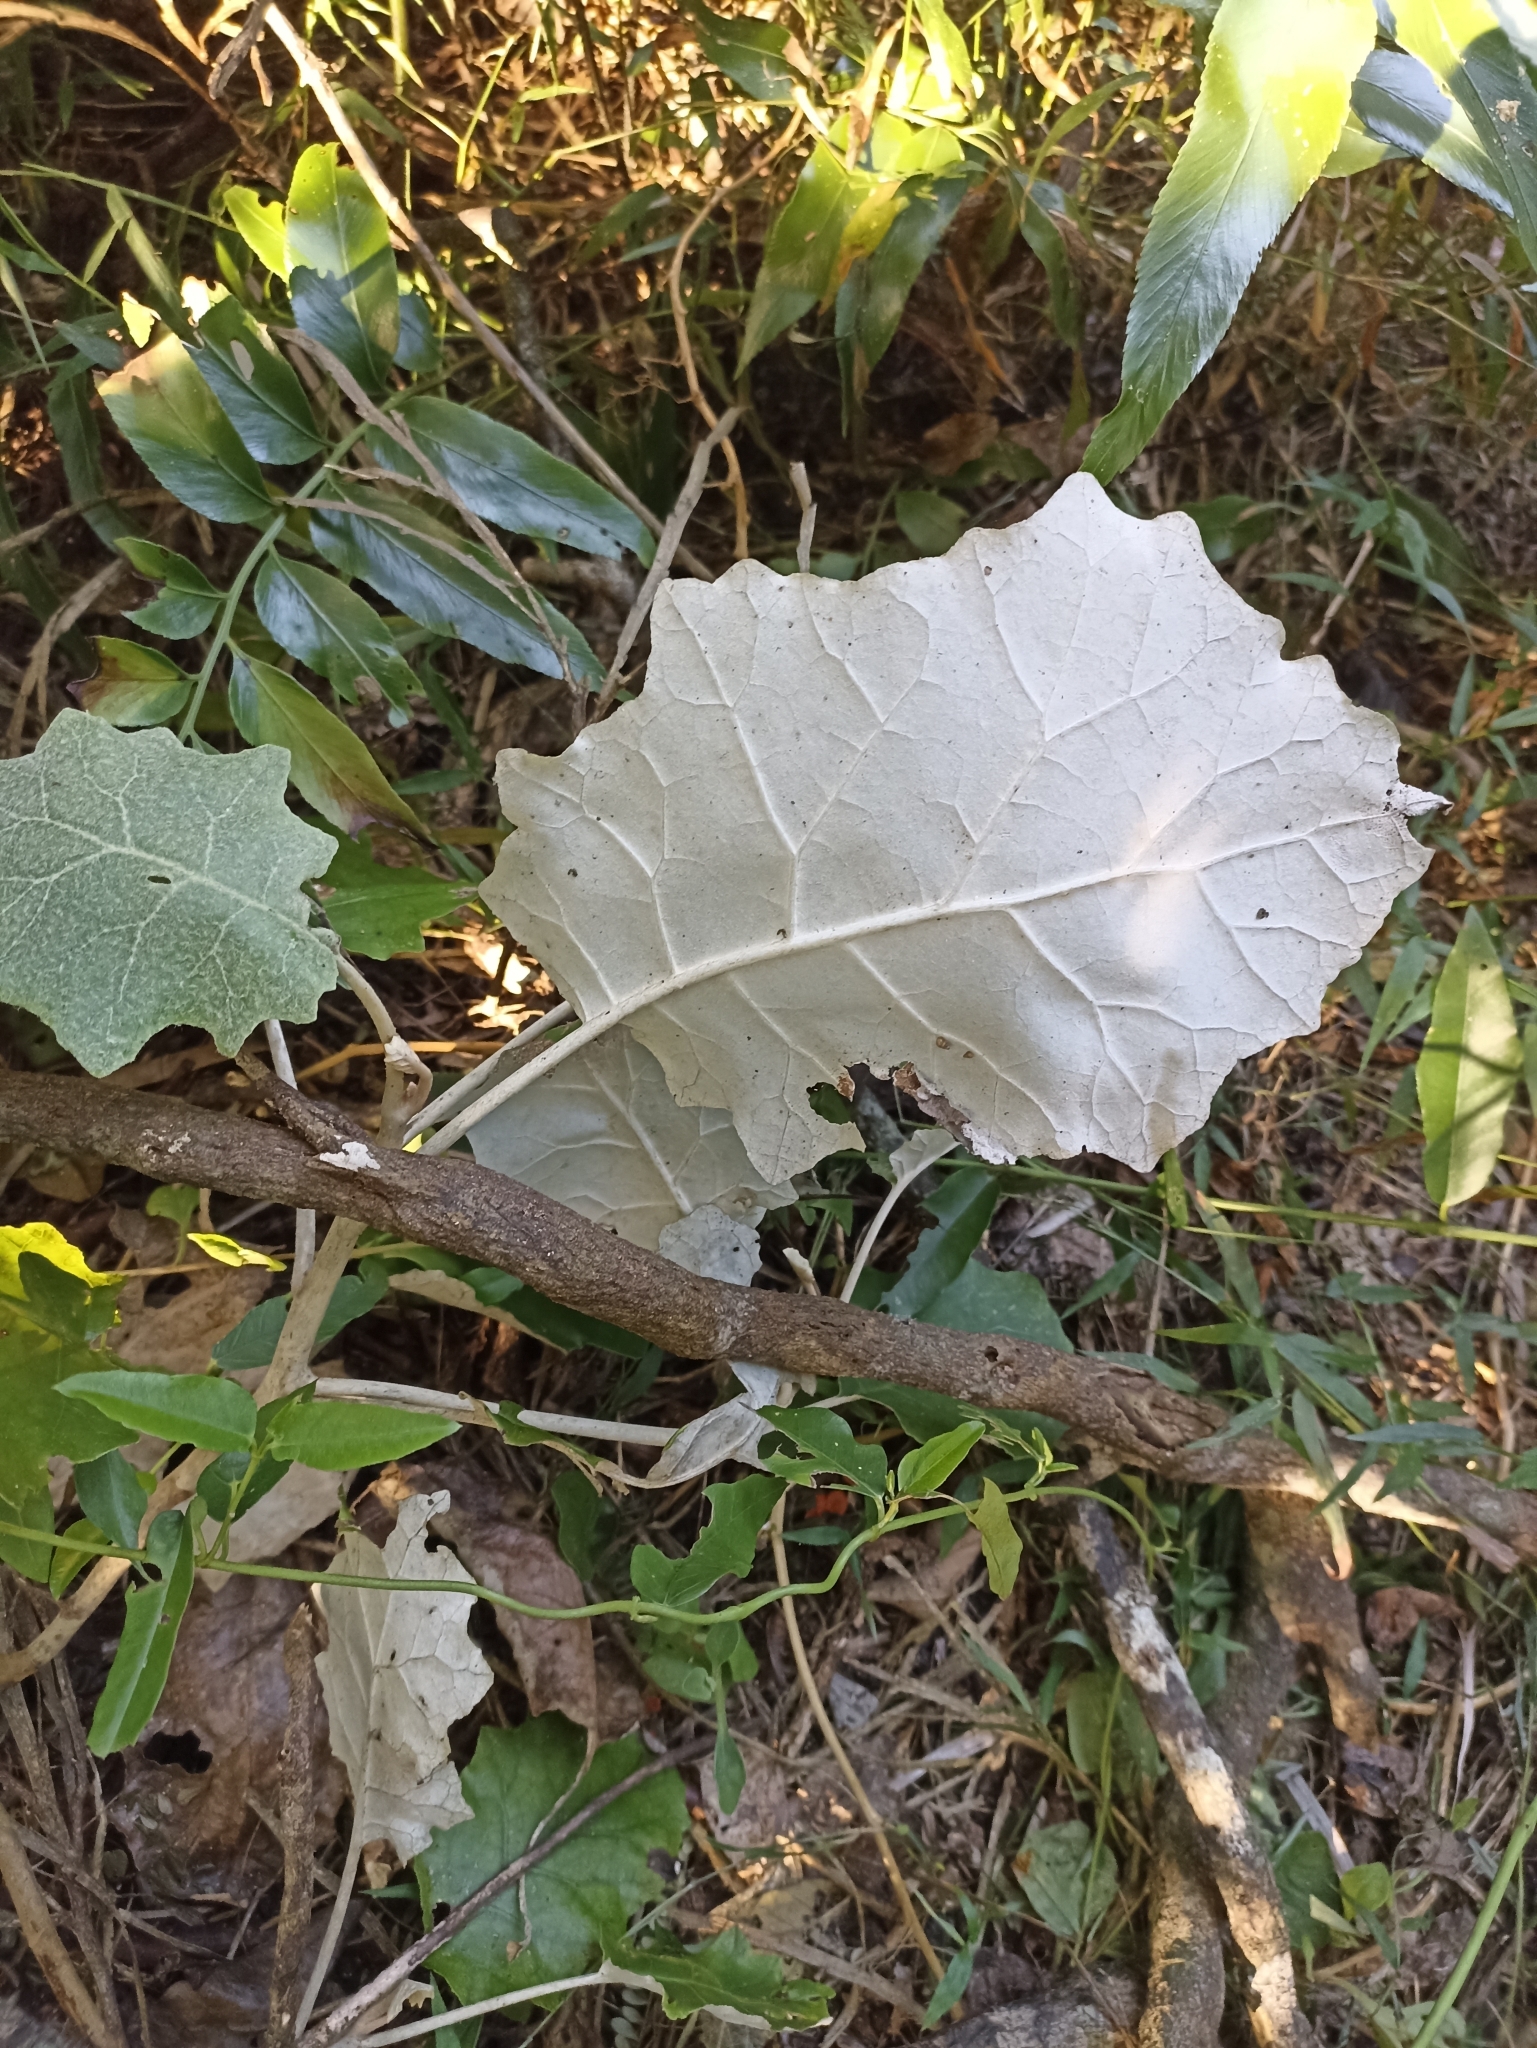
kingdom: Plantae
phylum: Tracheophyta
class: Magnoliopsida
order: Asterales
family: Asteraceae
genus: Brachyglottis
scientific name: Brachyglottis repanda
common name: Hedge ragwort
